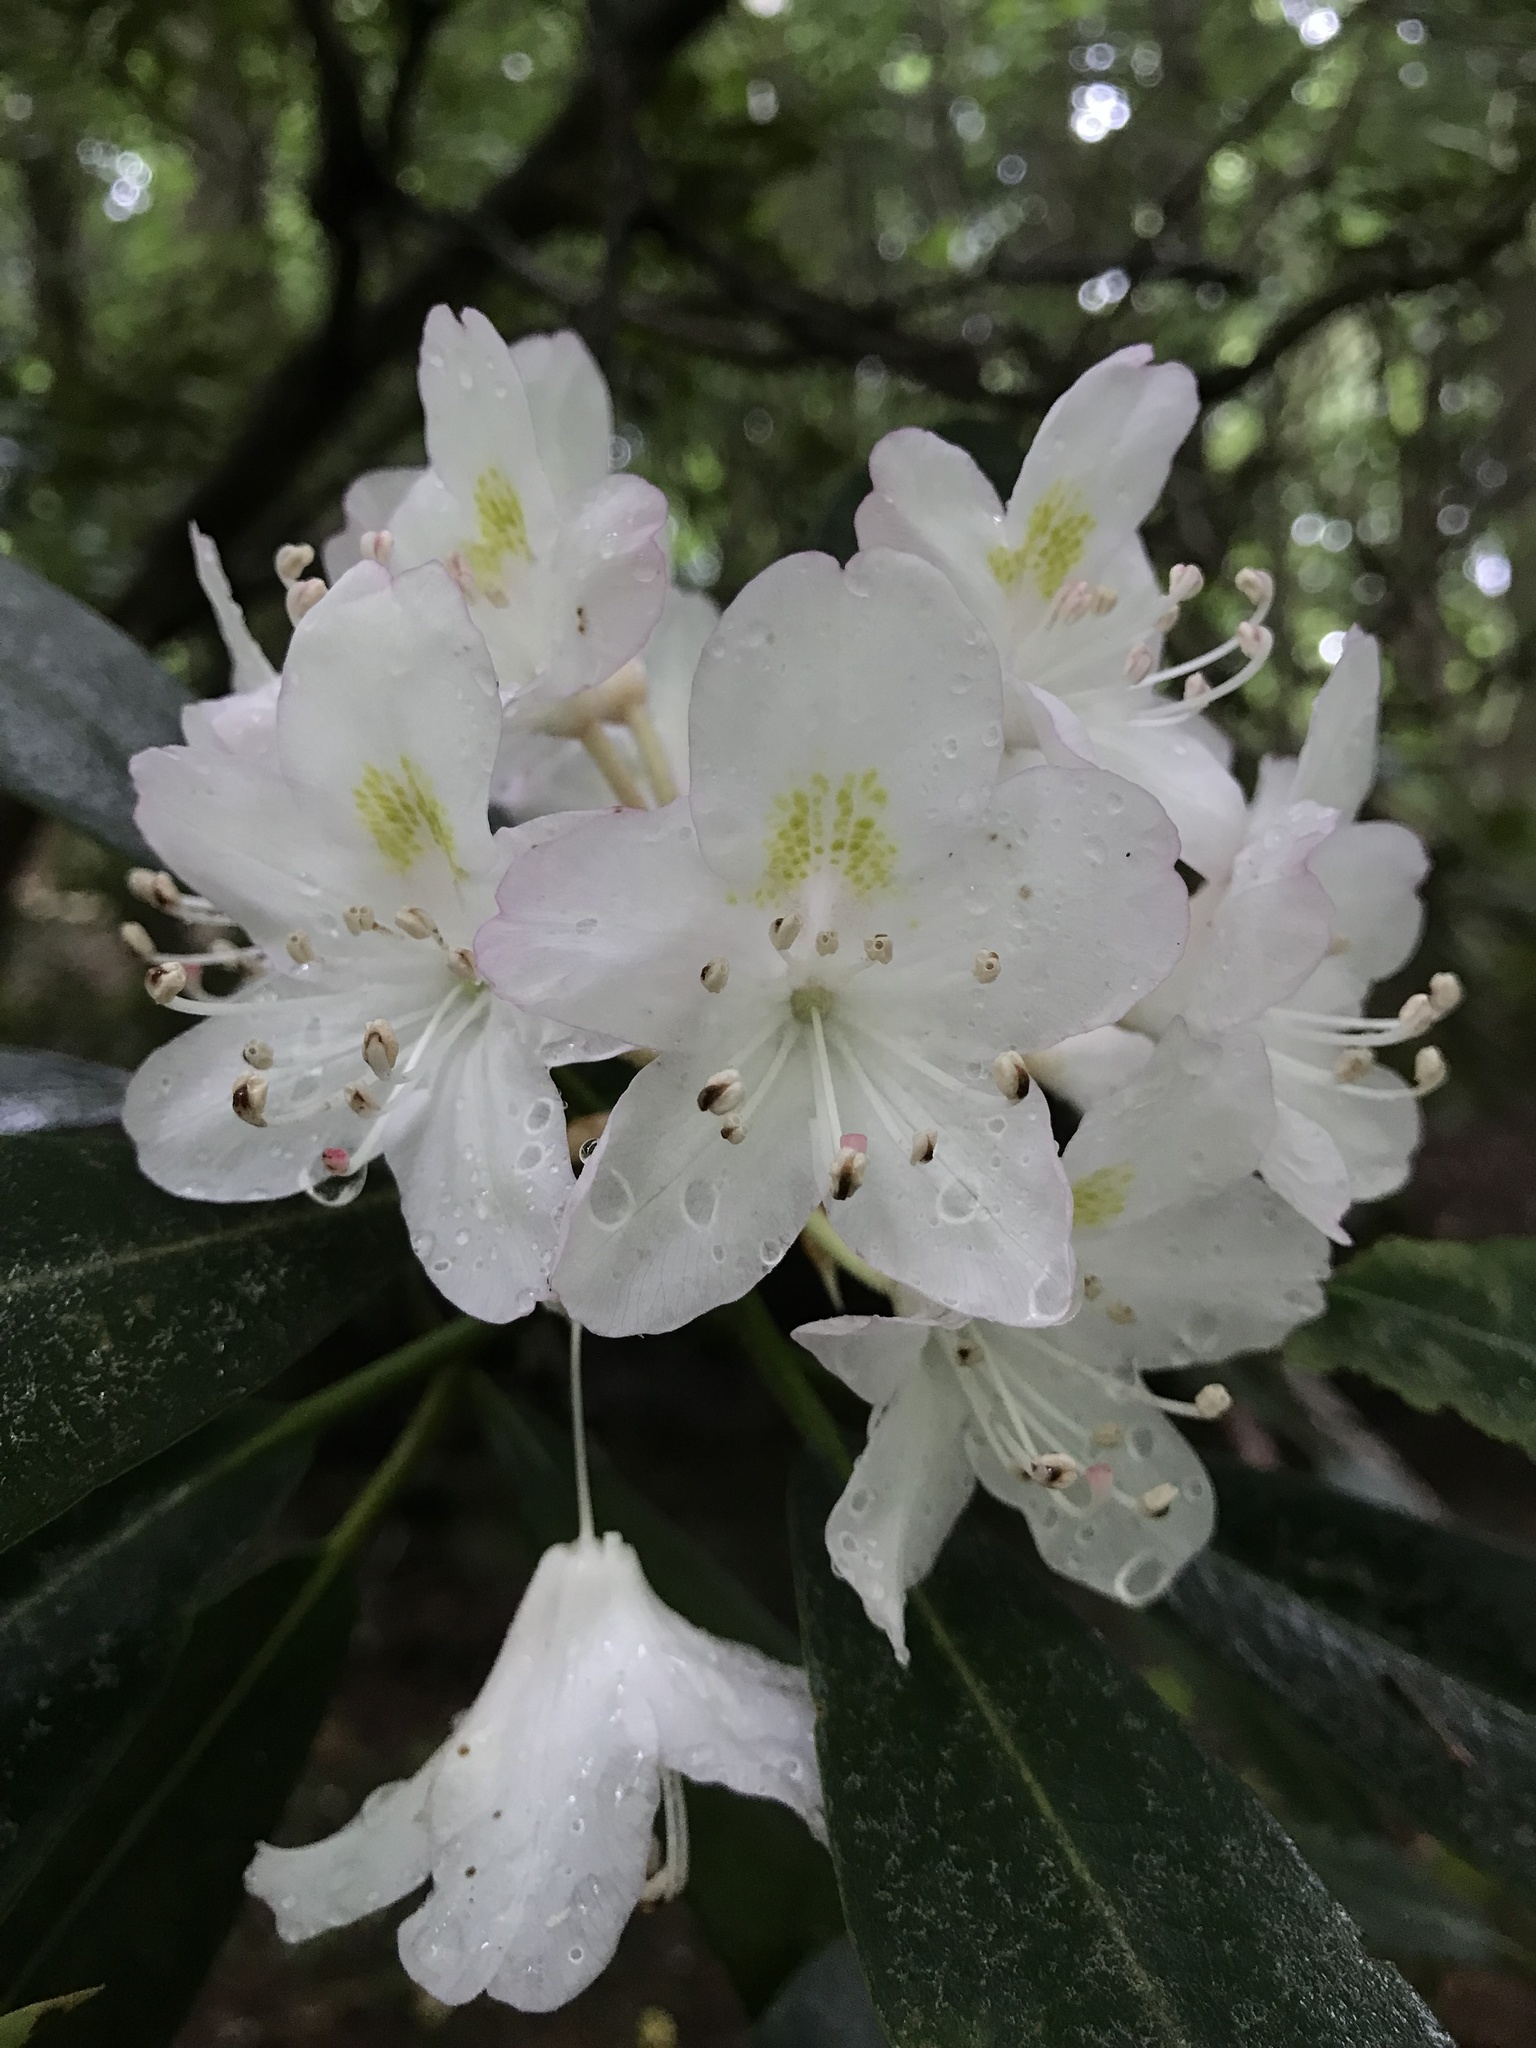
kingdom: Plantae
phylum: Tracheophyta
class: Magnoliopsida
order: Ericales
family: Ericaceae
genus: Rhododendron
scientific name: Rhododendron maximum
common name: Great rhododendron
